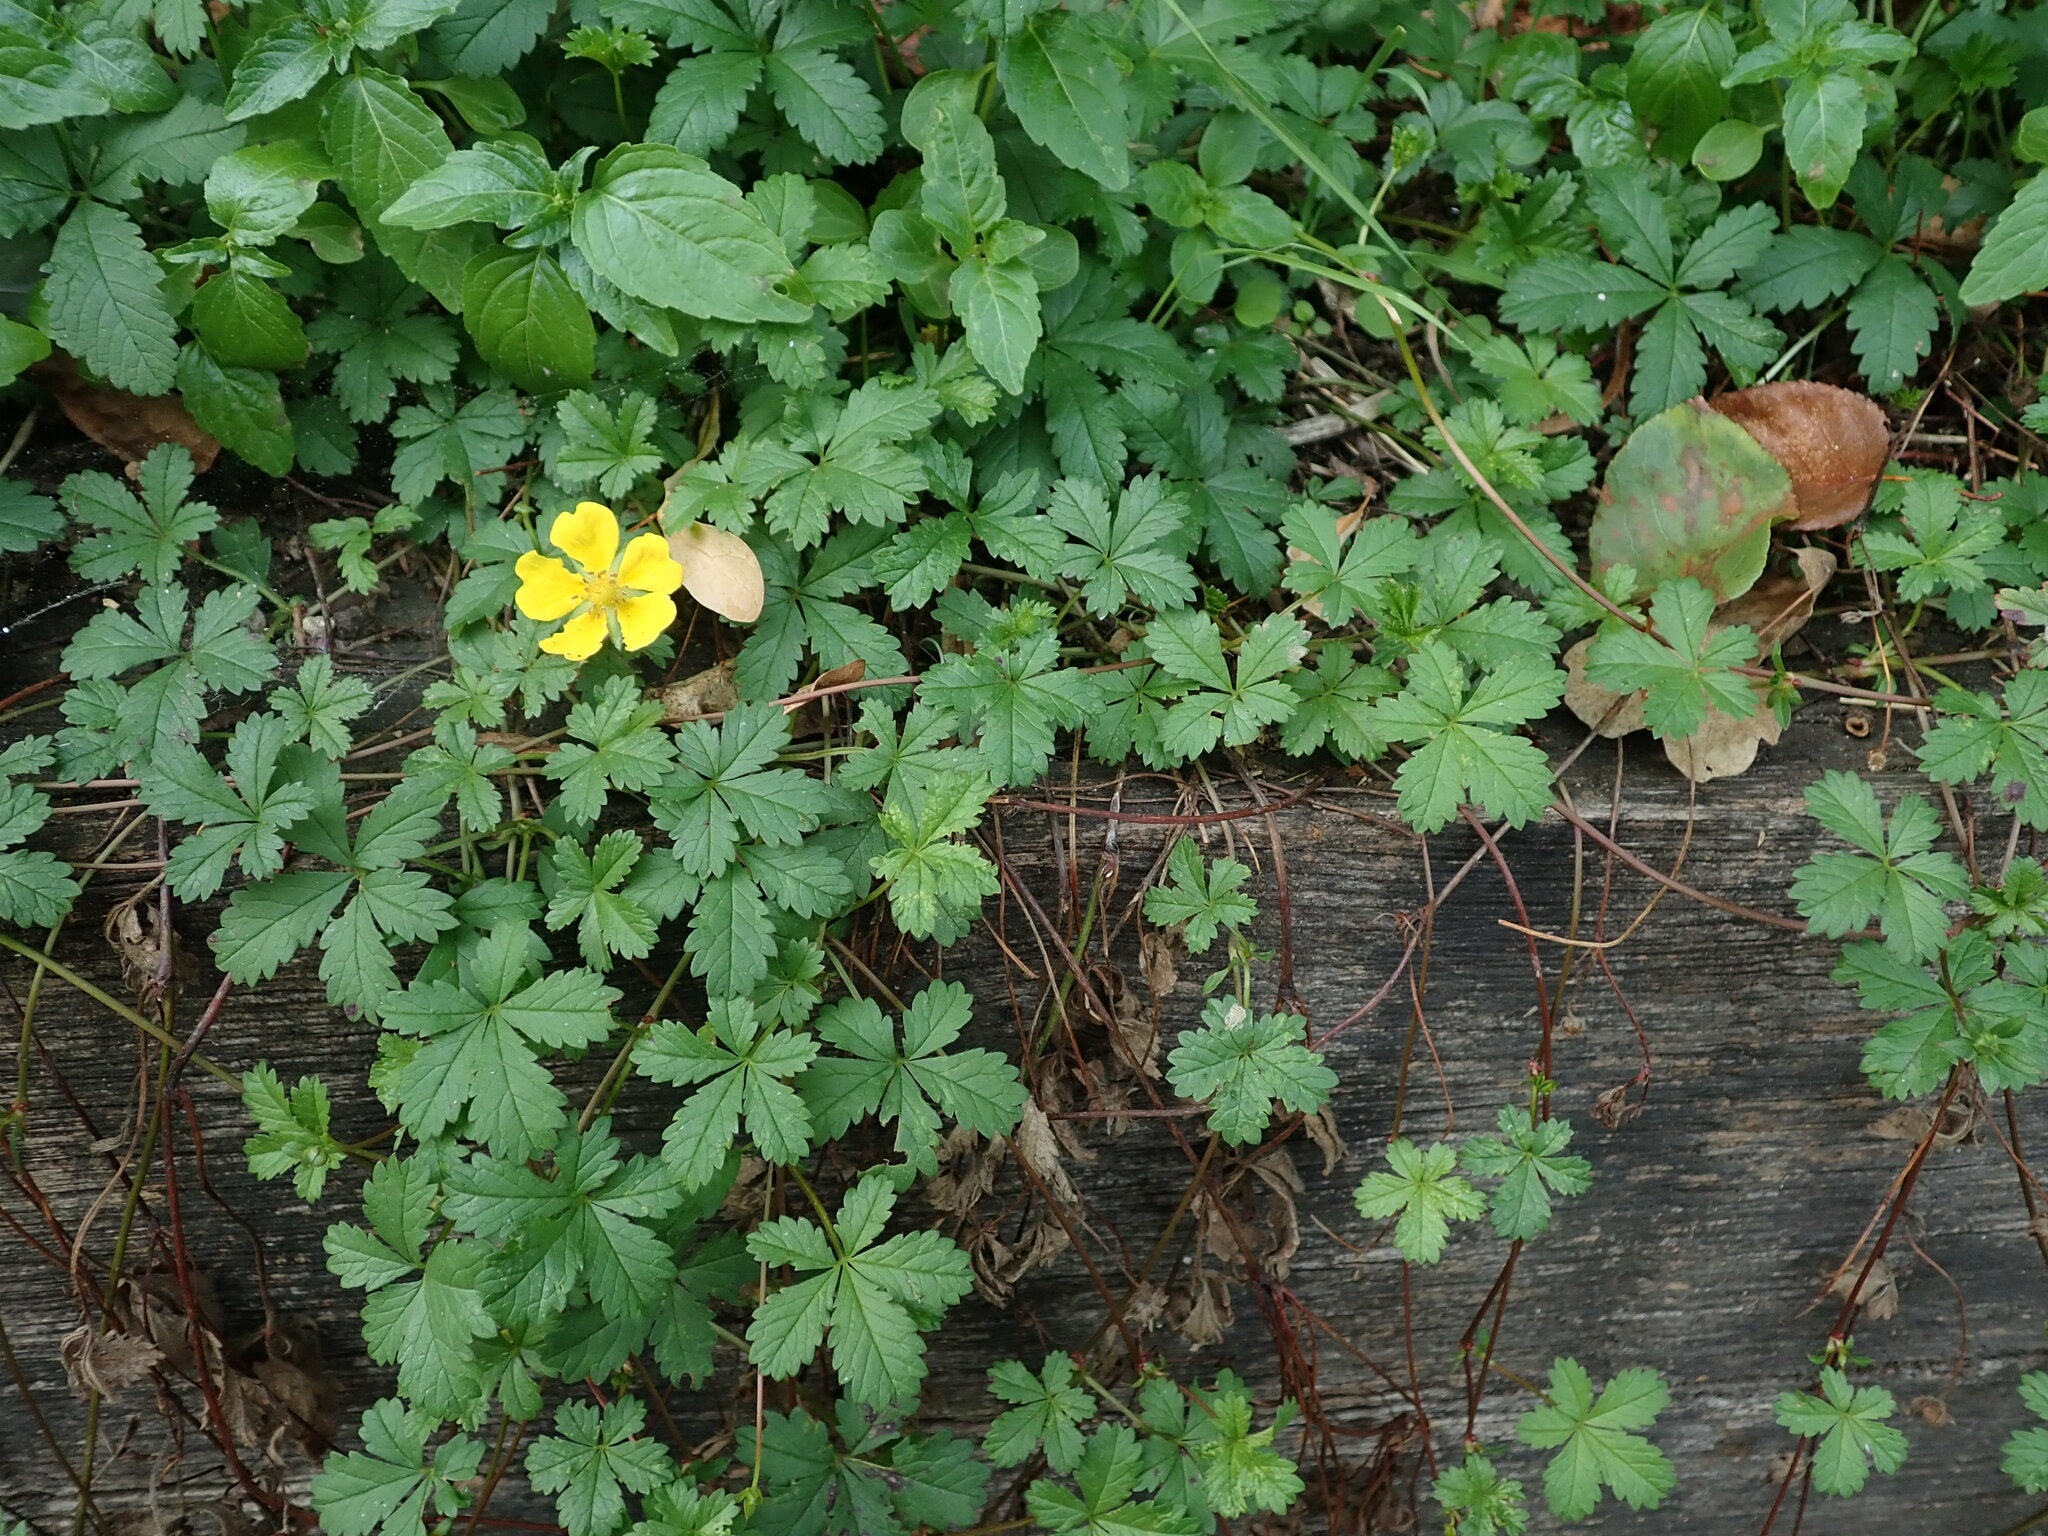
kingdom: Plantae
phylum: Tracheophyta
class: Magnoliopsida
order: Rosales
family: Rosaceae
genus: Potentilla
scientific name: Potentilla reptans
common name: Creeping cinquefoil
